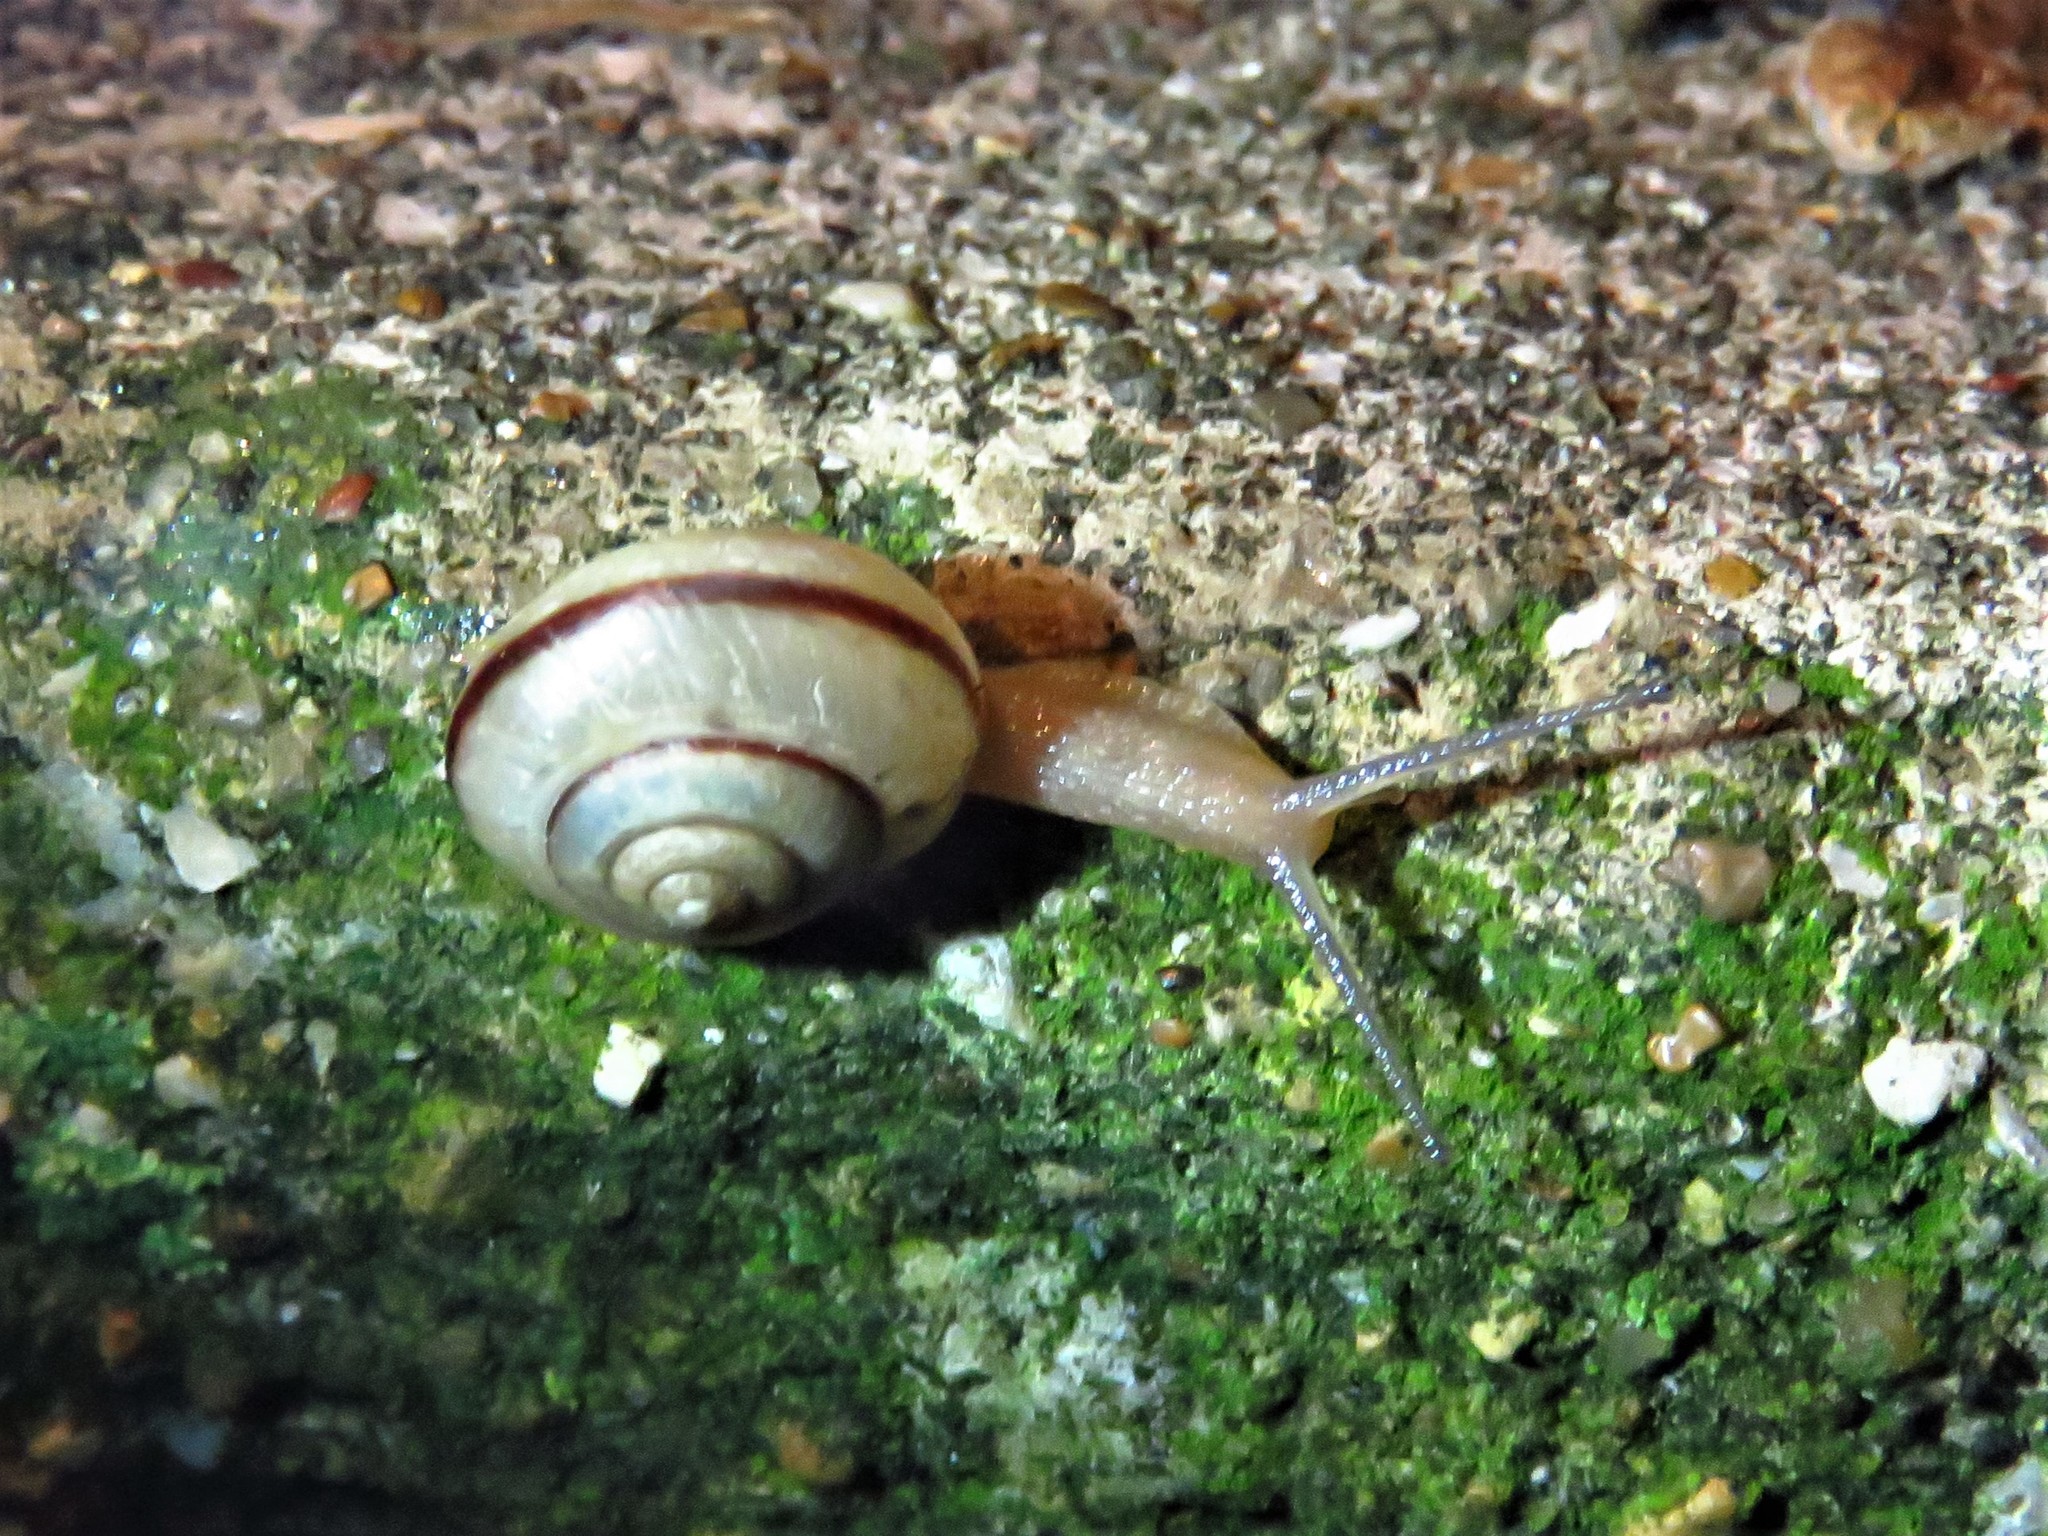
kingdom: Animalia
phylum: Mollusca
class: Gastropoda
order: Stylommatophora
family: Camaenidae
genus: Bradybaena
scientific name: Bradybaena similaris
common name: Asian trampsnail
